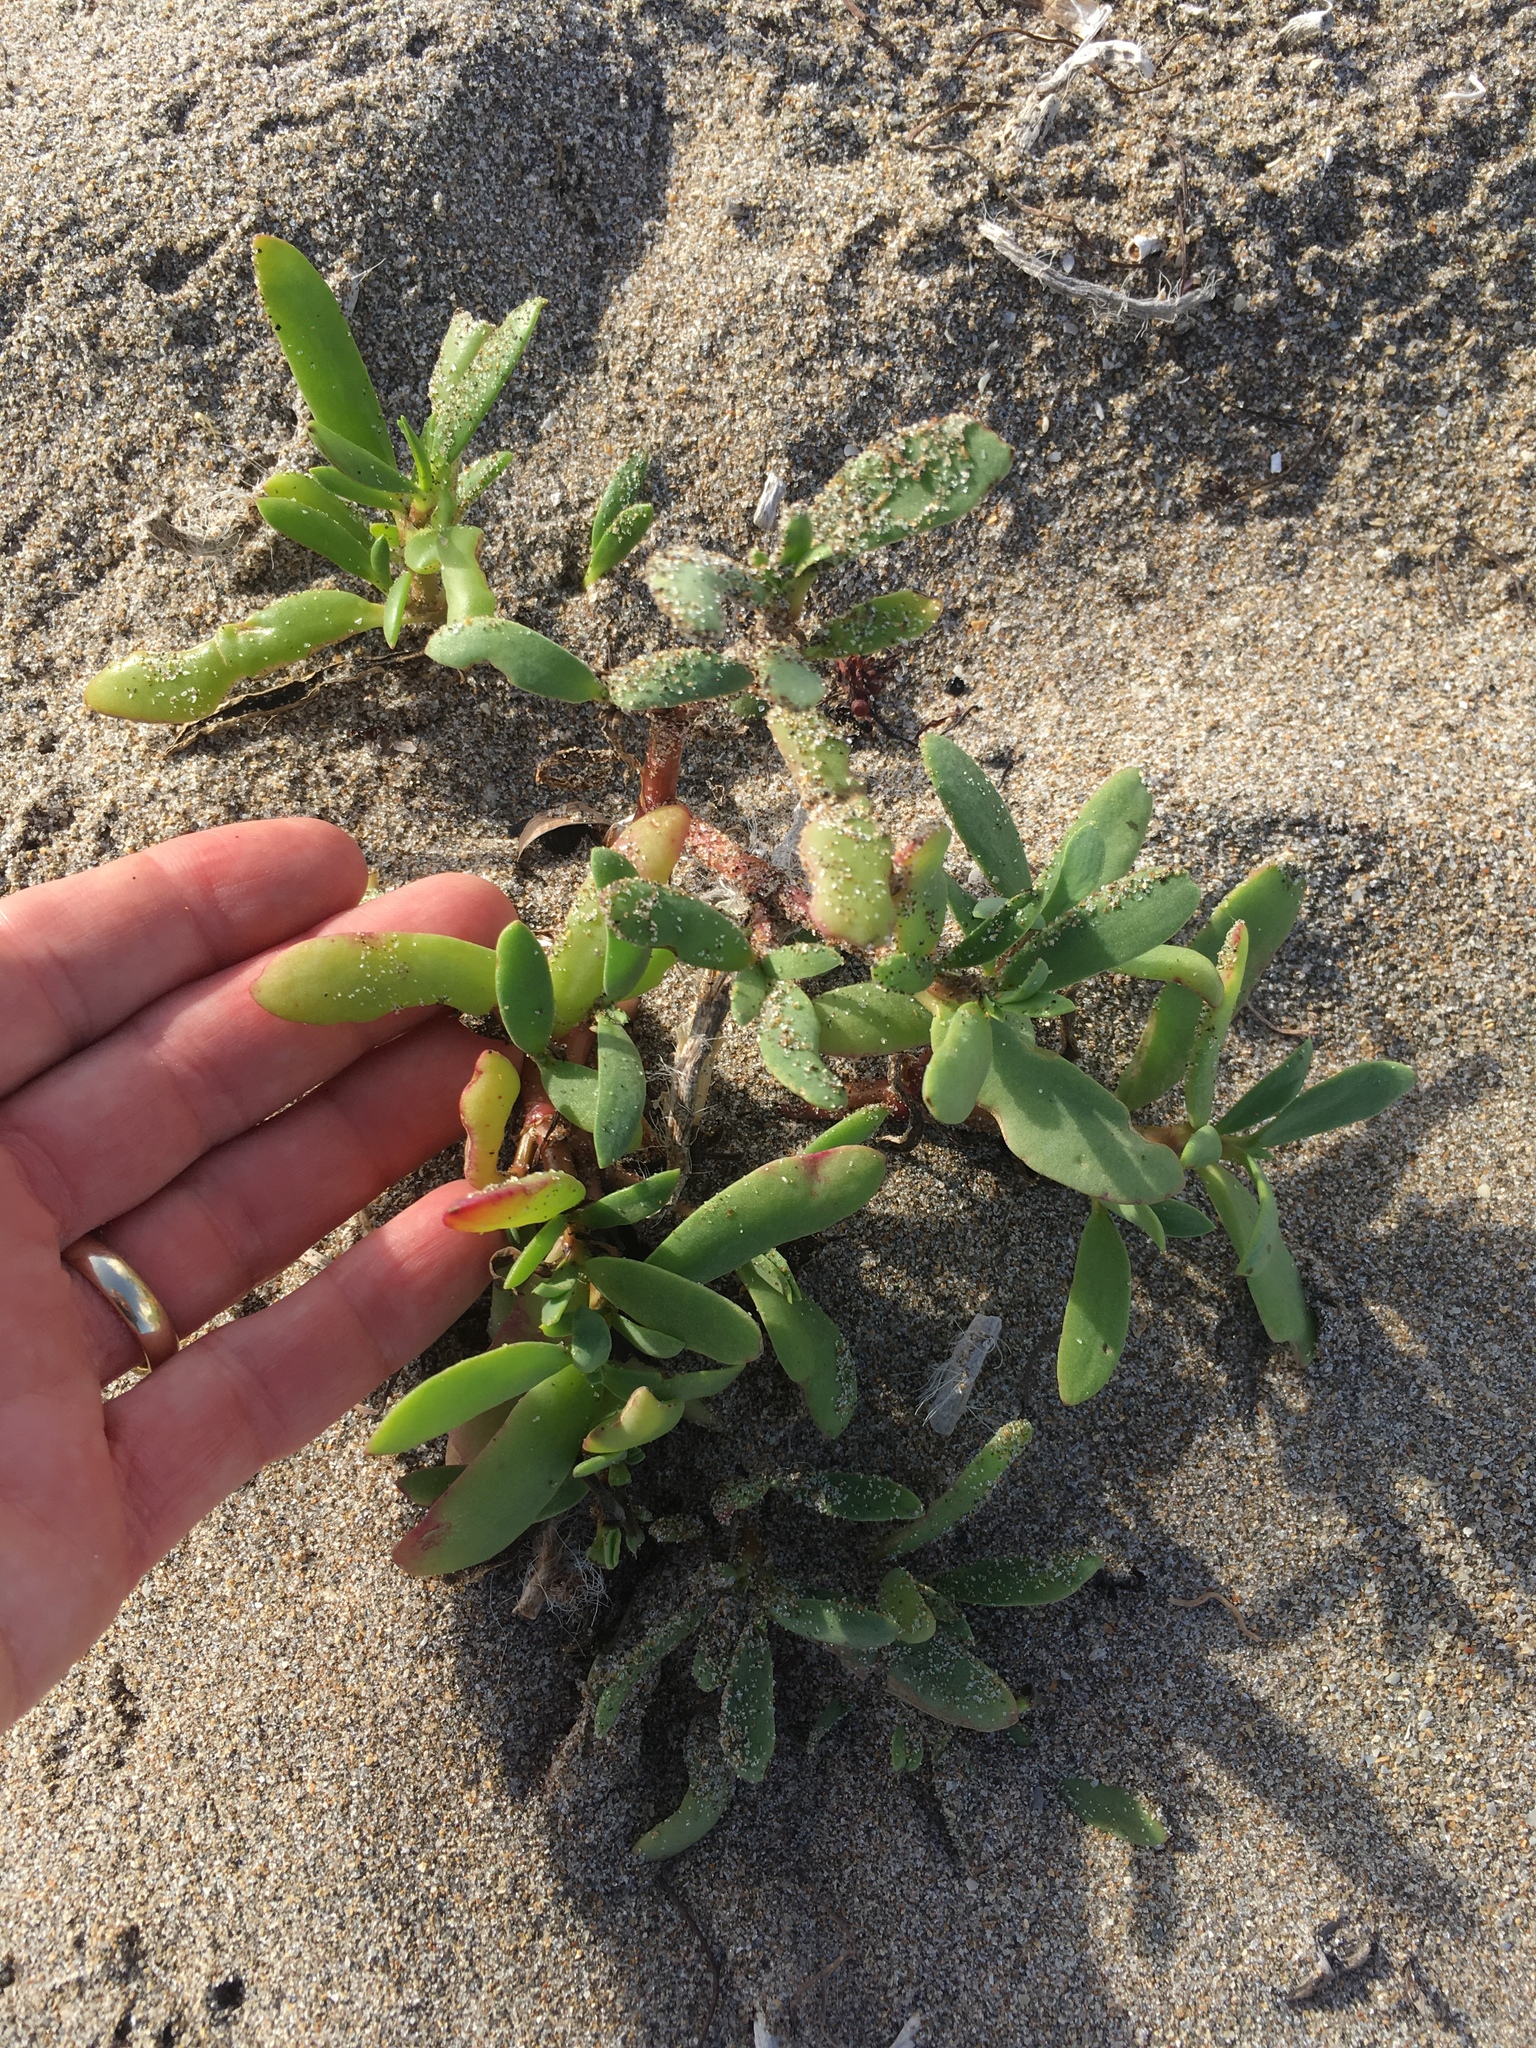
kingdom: Plantae
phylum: Tracheophyta
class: Magnoliopsida
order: Caryophyllales
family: Aizoaceae
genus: Sesuvium
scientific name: Sesuvium portulacastrum
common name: Sea-purslane
